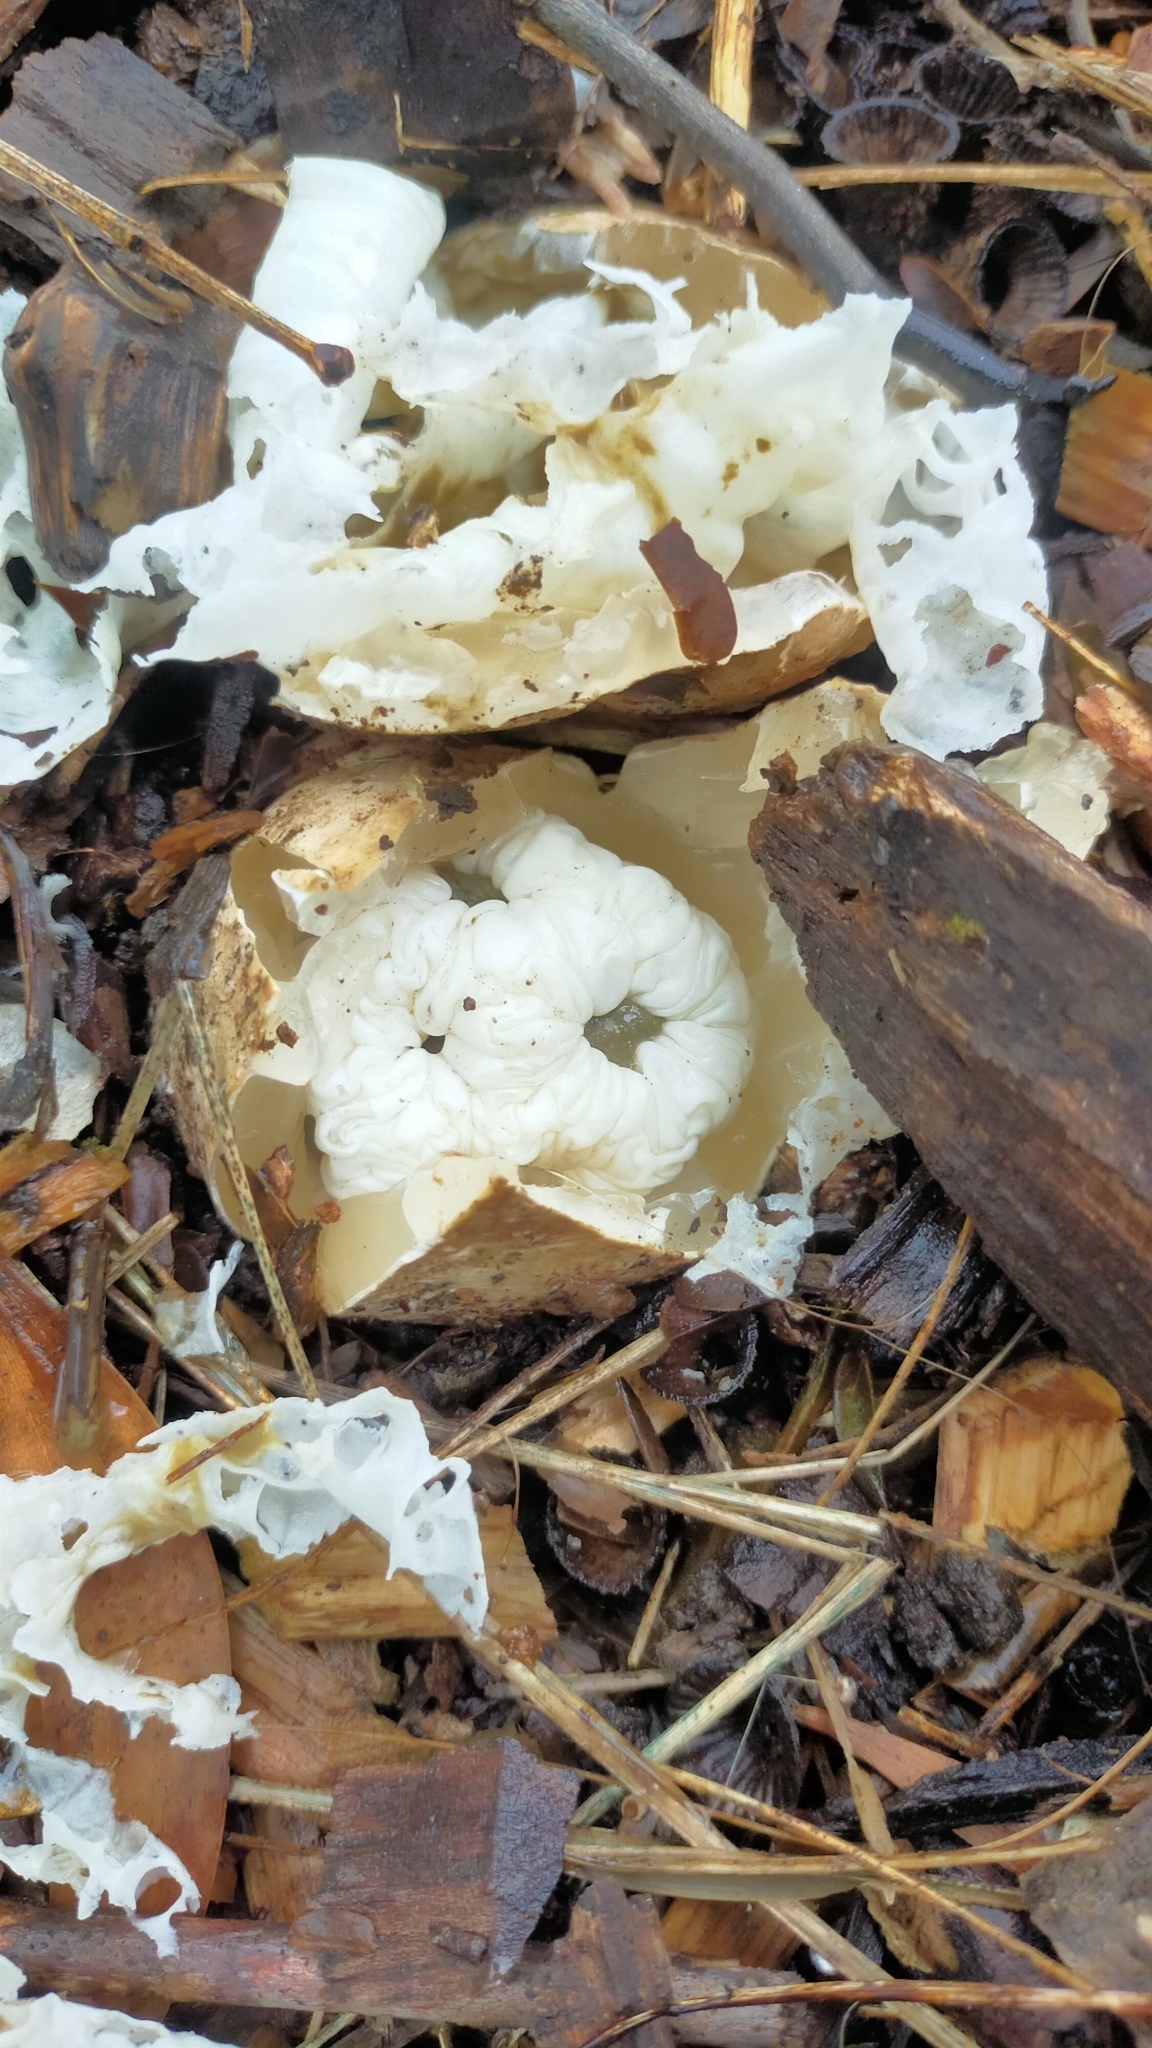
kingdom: Fungi
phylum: Basidiomycota
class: Agaricomycetes
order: Phallales
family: Phallaceae
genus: Ileodictyon
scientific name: Ileodictyon cibarium
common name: Basket fungus
